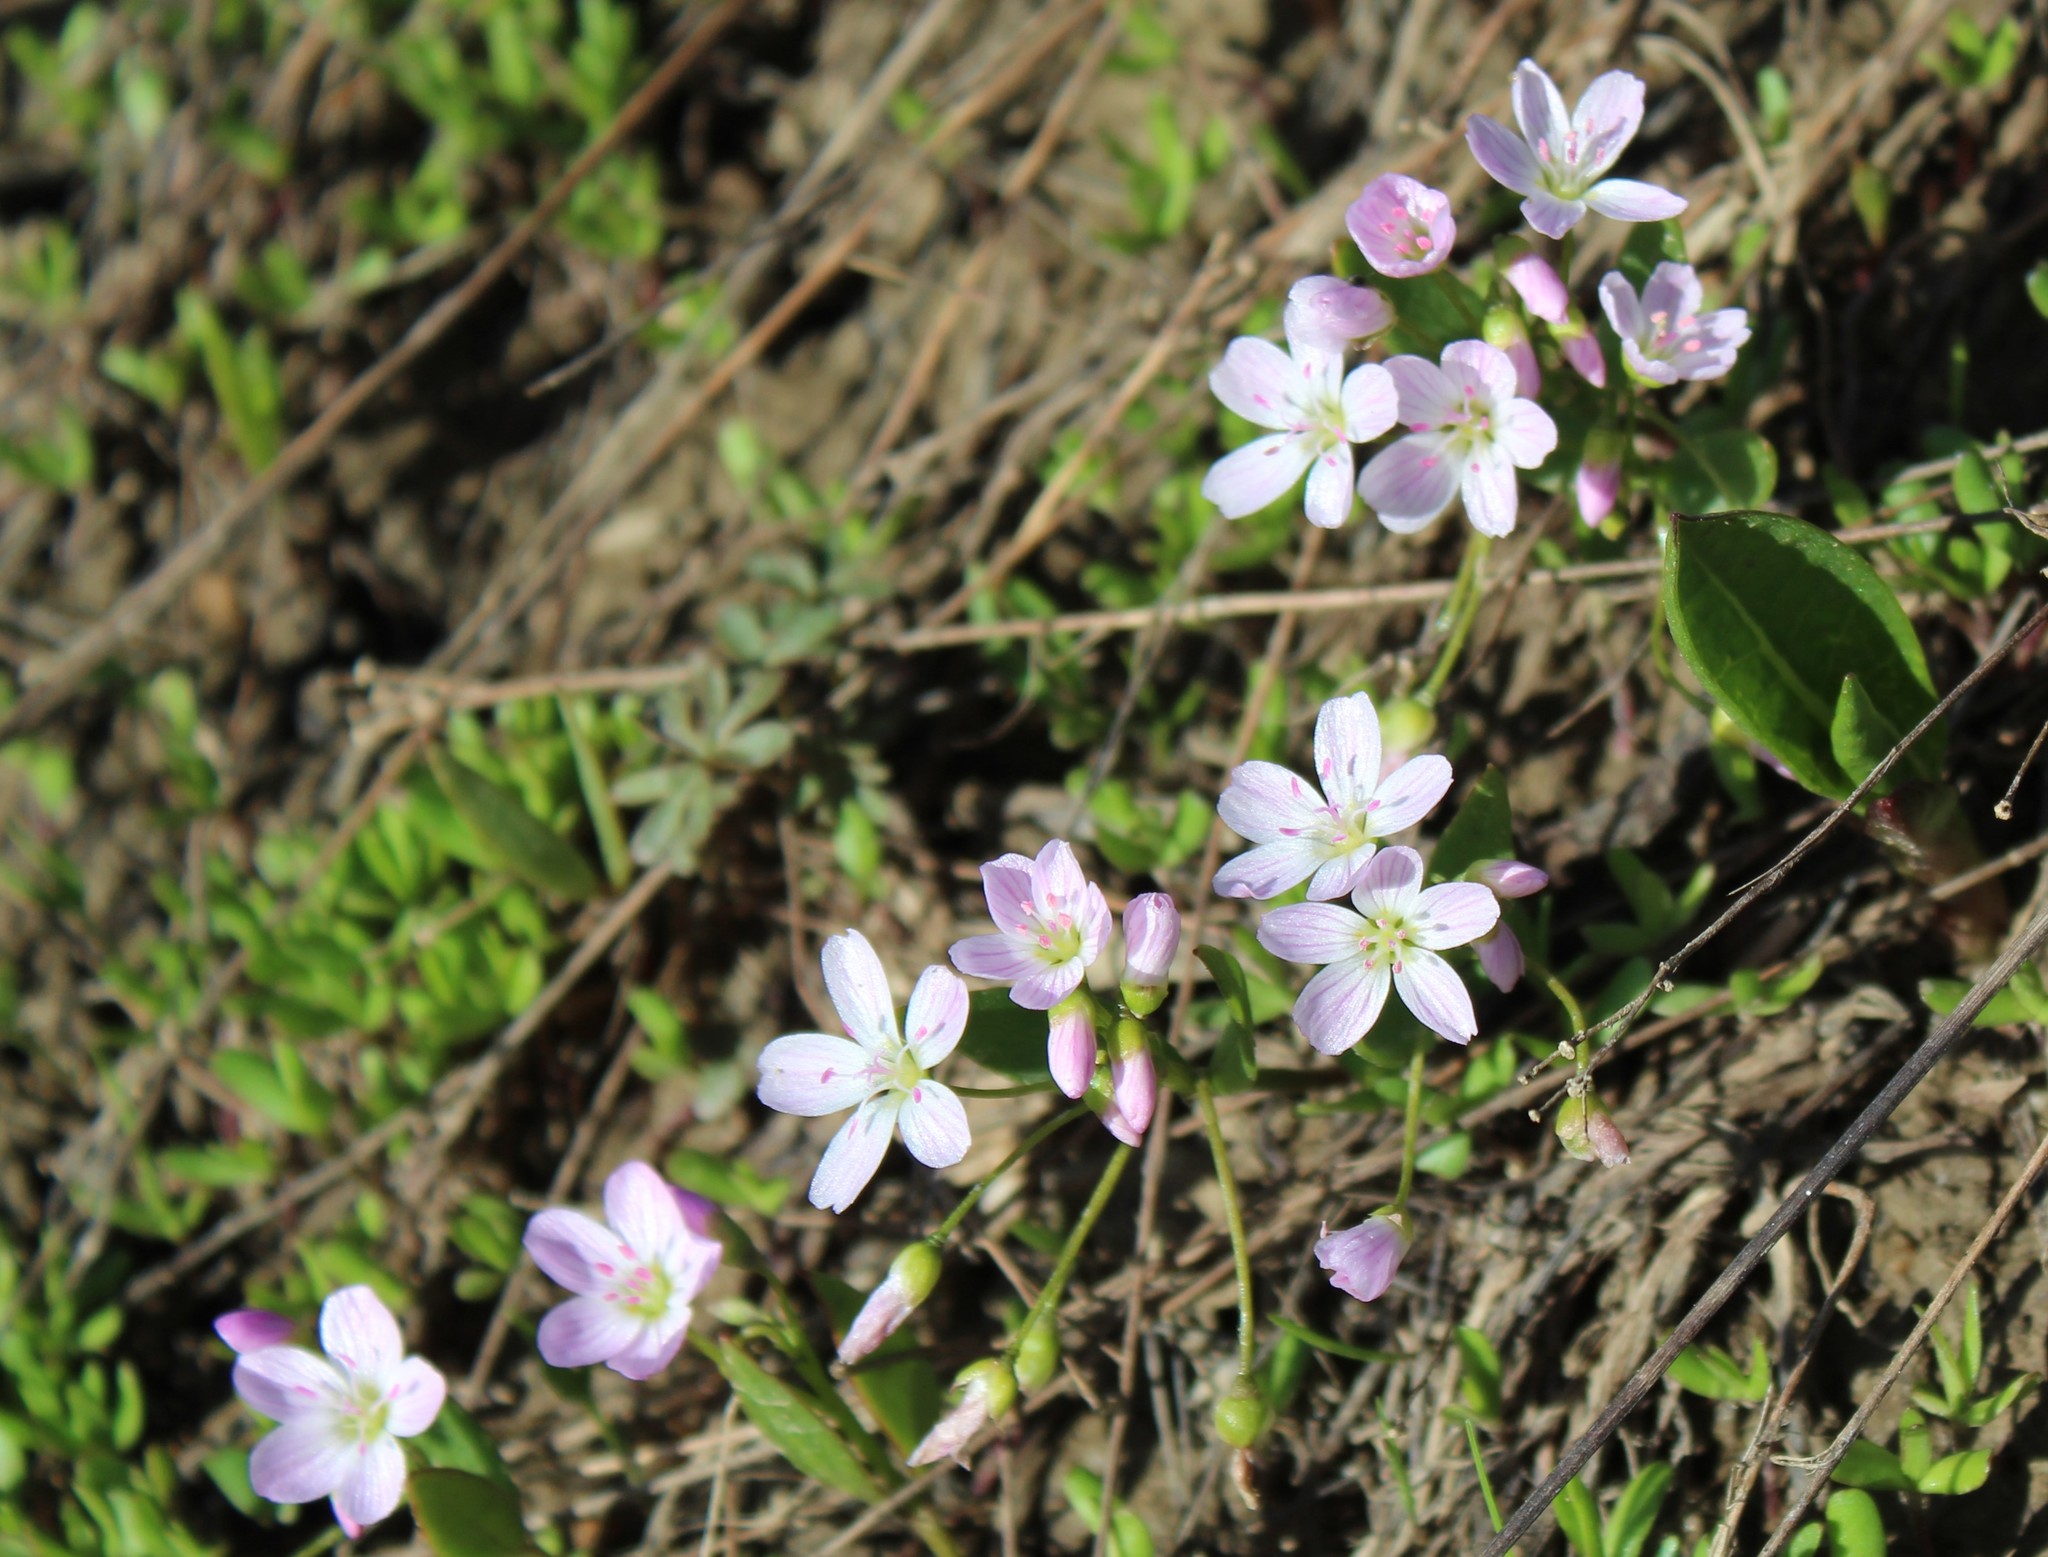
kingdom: Plantae
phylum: Tracheophyta
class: Magnoliopsida
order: Caryophyllales
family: Montiaceae
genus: Claytonia
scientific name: Claytonia lanceolata
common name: Western spring-beauty
